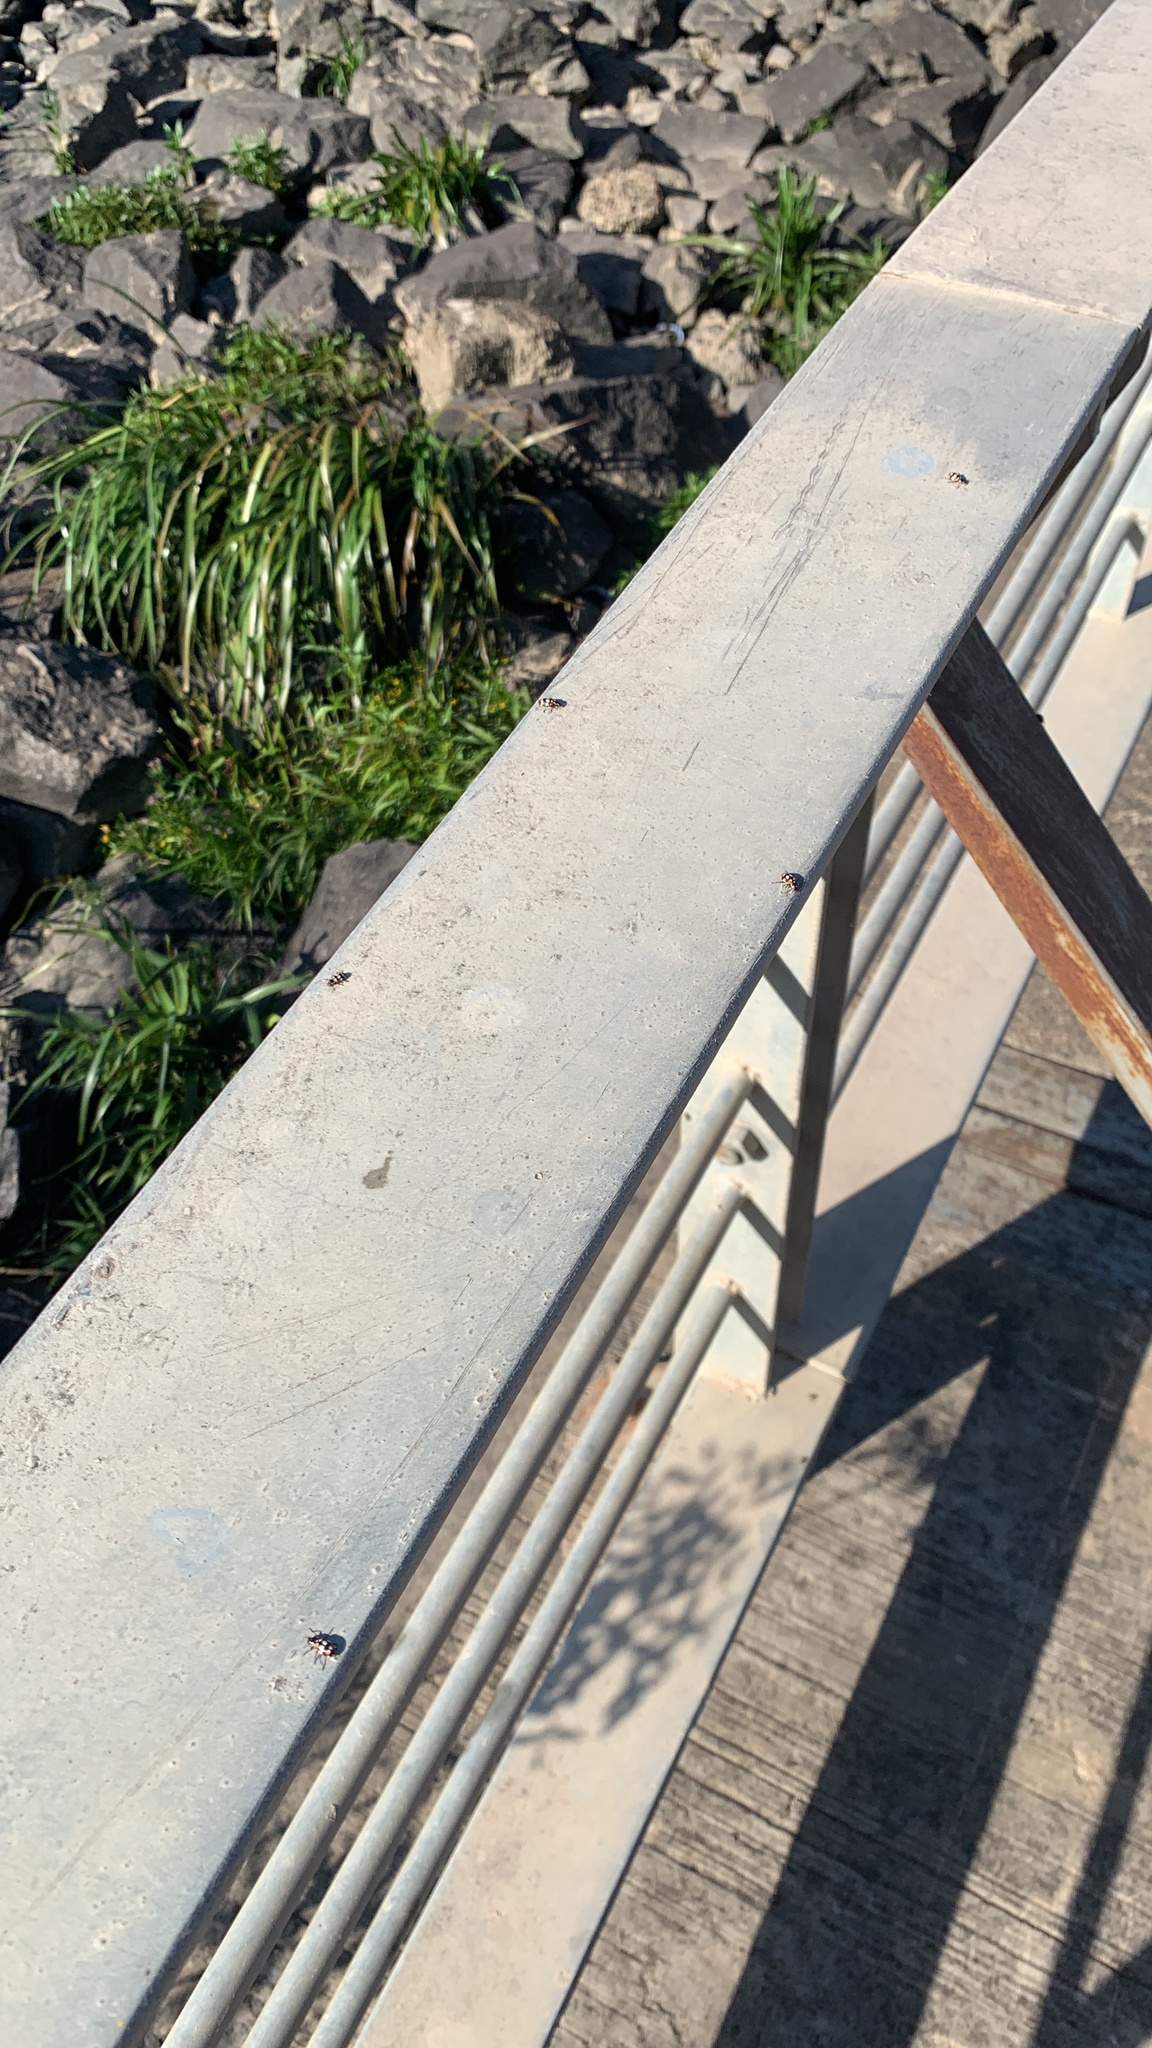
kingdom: Animalia
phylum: Arthropoda
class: Insecta
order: Coleoptera
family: Coccinellidae
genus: Eriopis
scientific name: Eriopis connexa
